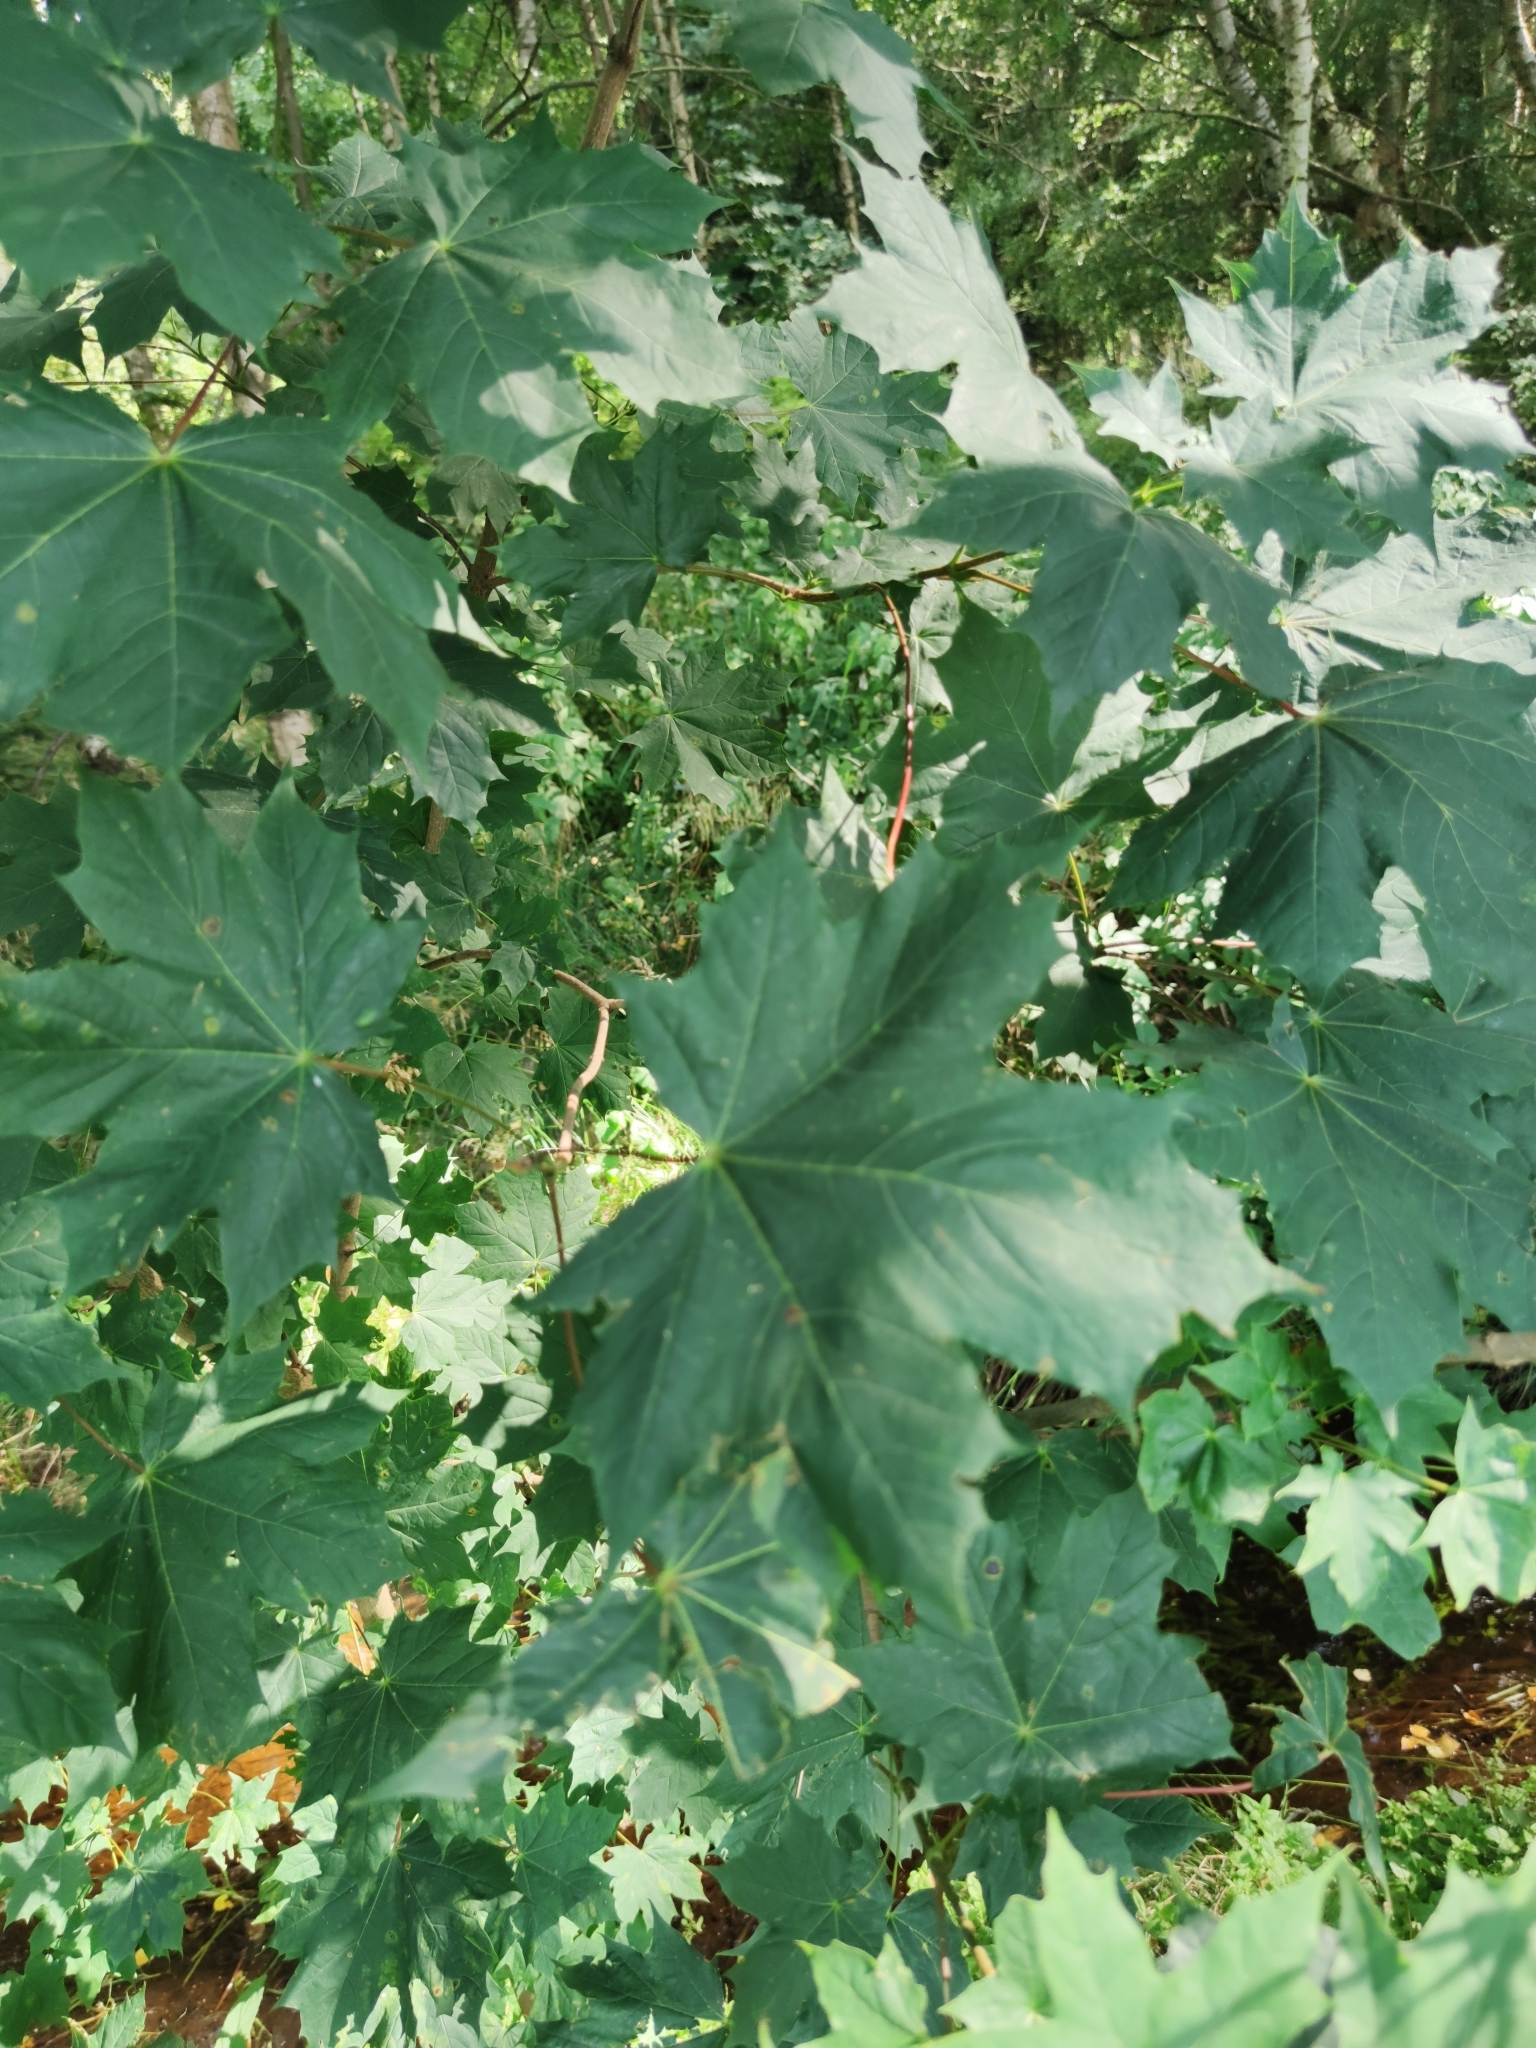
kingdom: Plantae
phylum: Tracheophyta
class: Magnoliopsida
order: Sapindales
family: Sapindaceae
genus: Acer
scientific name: Acer platanoides
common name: Norway maple
